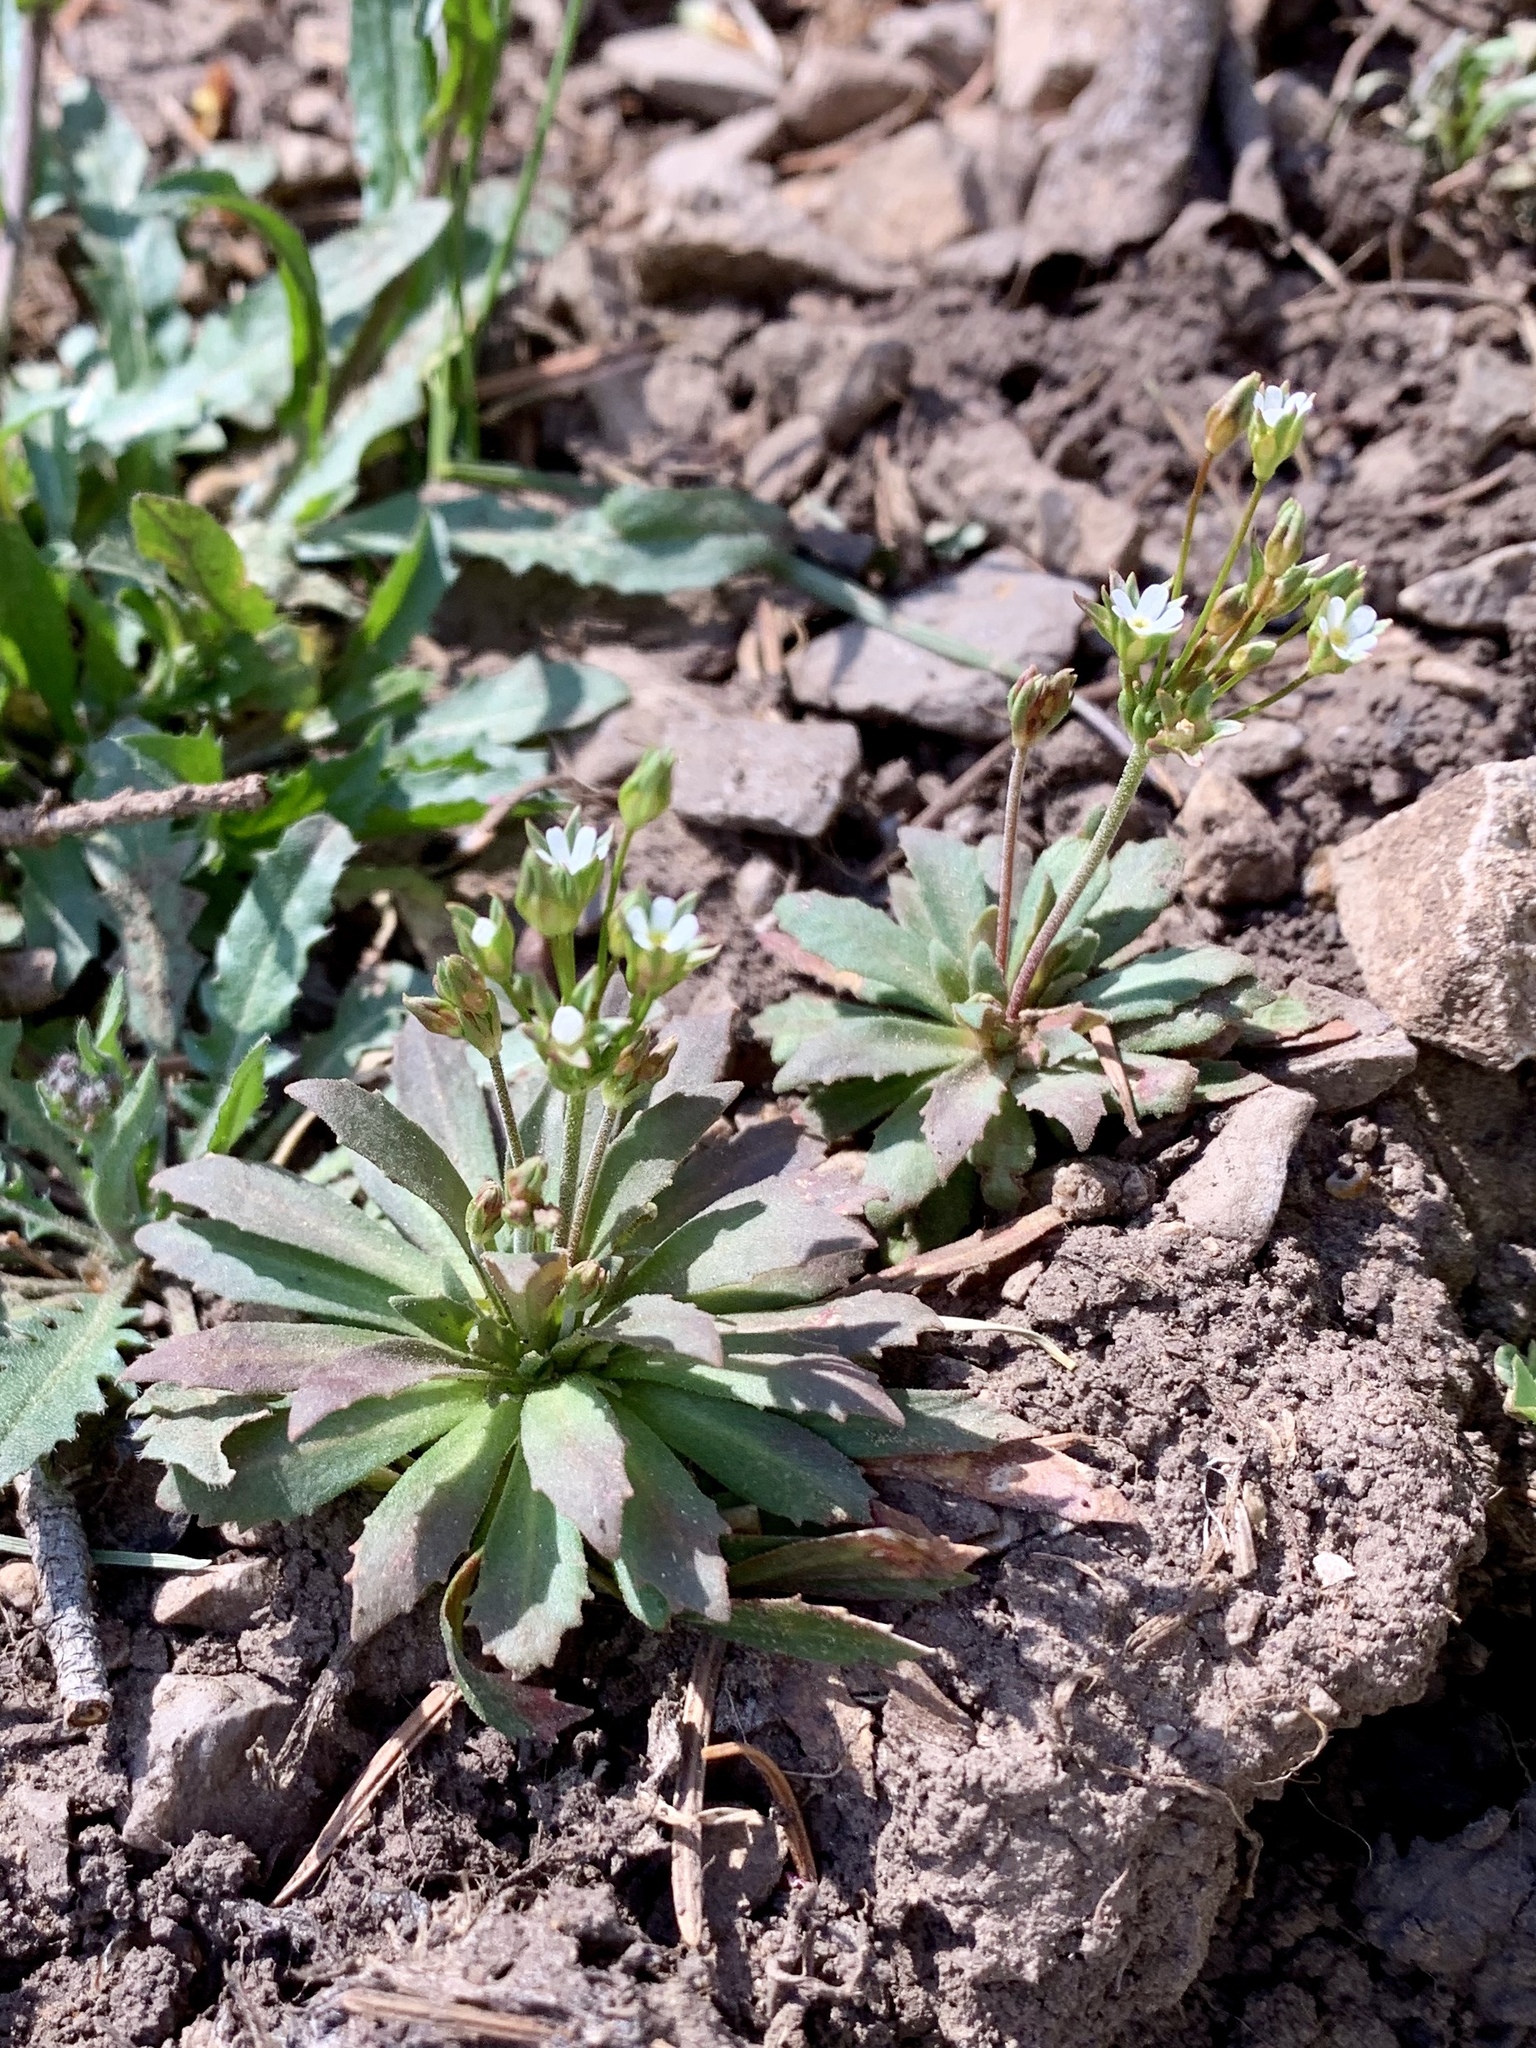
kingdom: Plantae
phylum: Tracheophyta
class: Magnoliopsida
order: Ericales
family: Primulaceae
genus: Androsace
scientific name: Androsace septentrionalis
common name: Hairy northern fairy-candelabra
